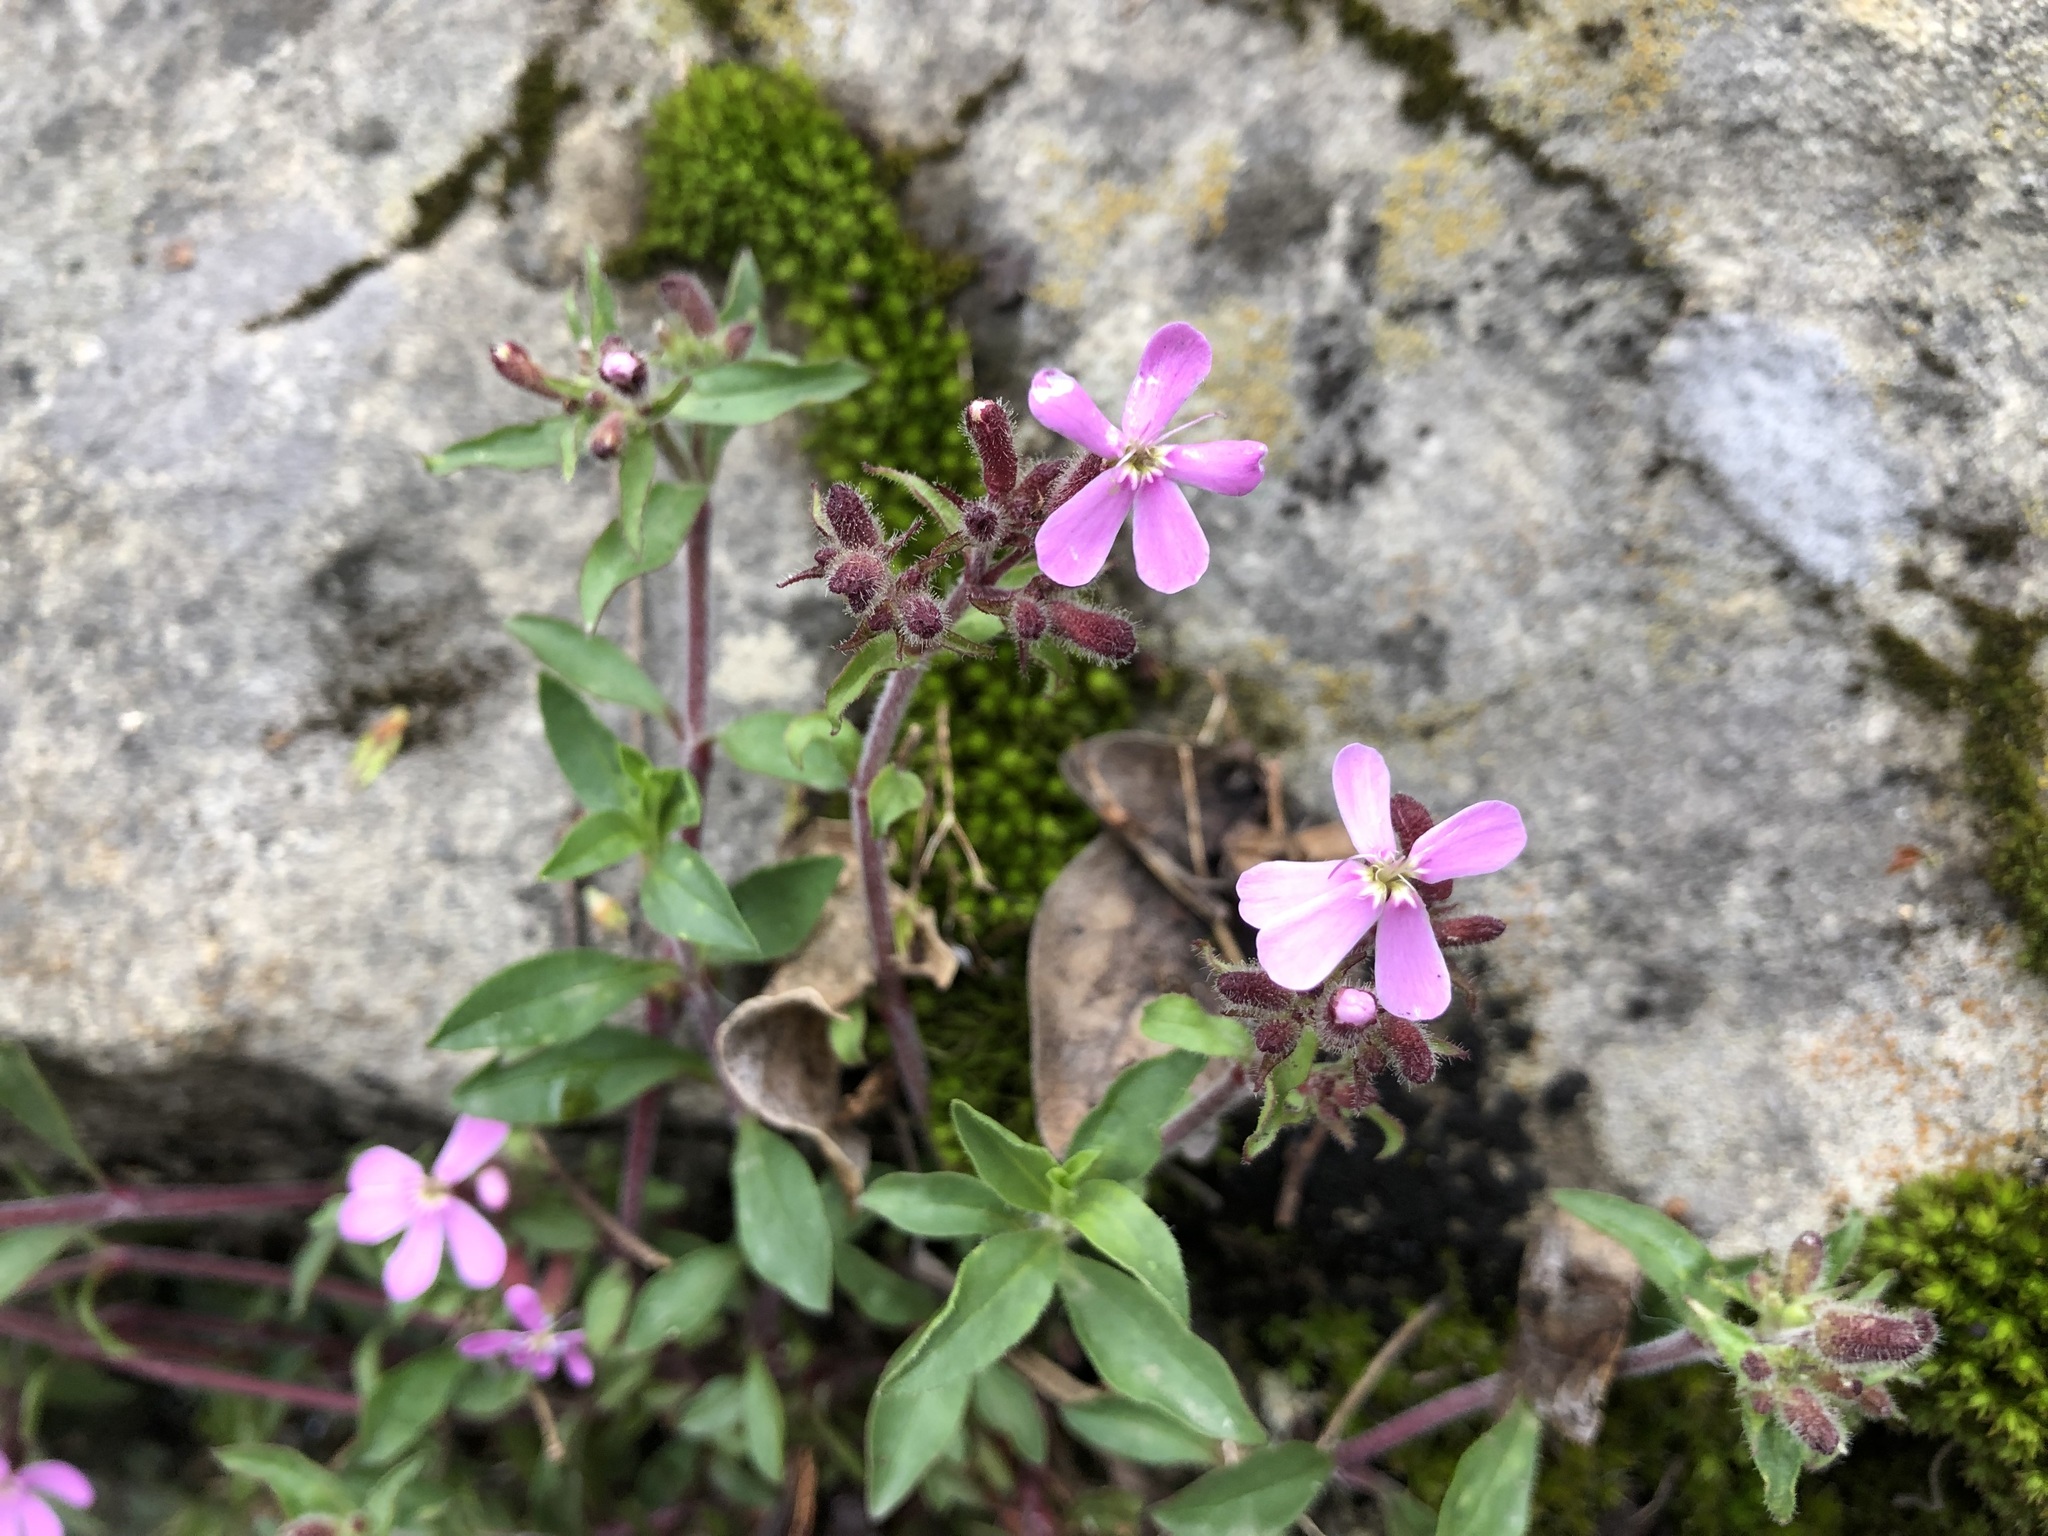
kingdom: Plantae
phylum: Tracheophyta
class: Magnoliopsida
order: Caryophyllales
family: Caryophyllaceae
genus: Saponaria
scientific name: Saponaria ocymoides
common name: Rock soapwort
